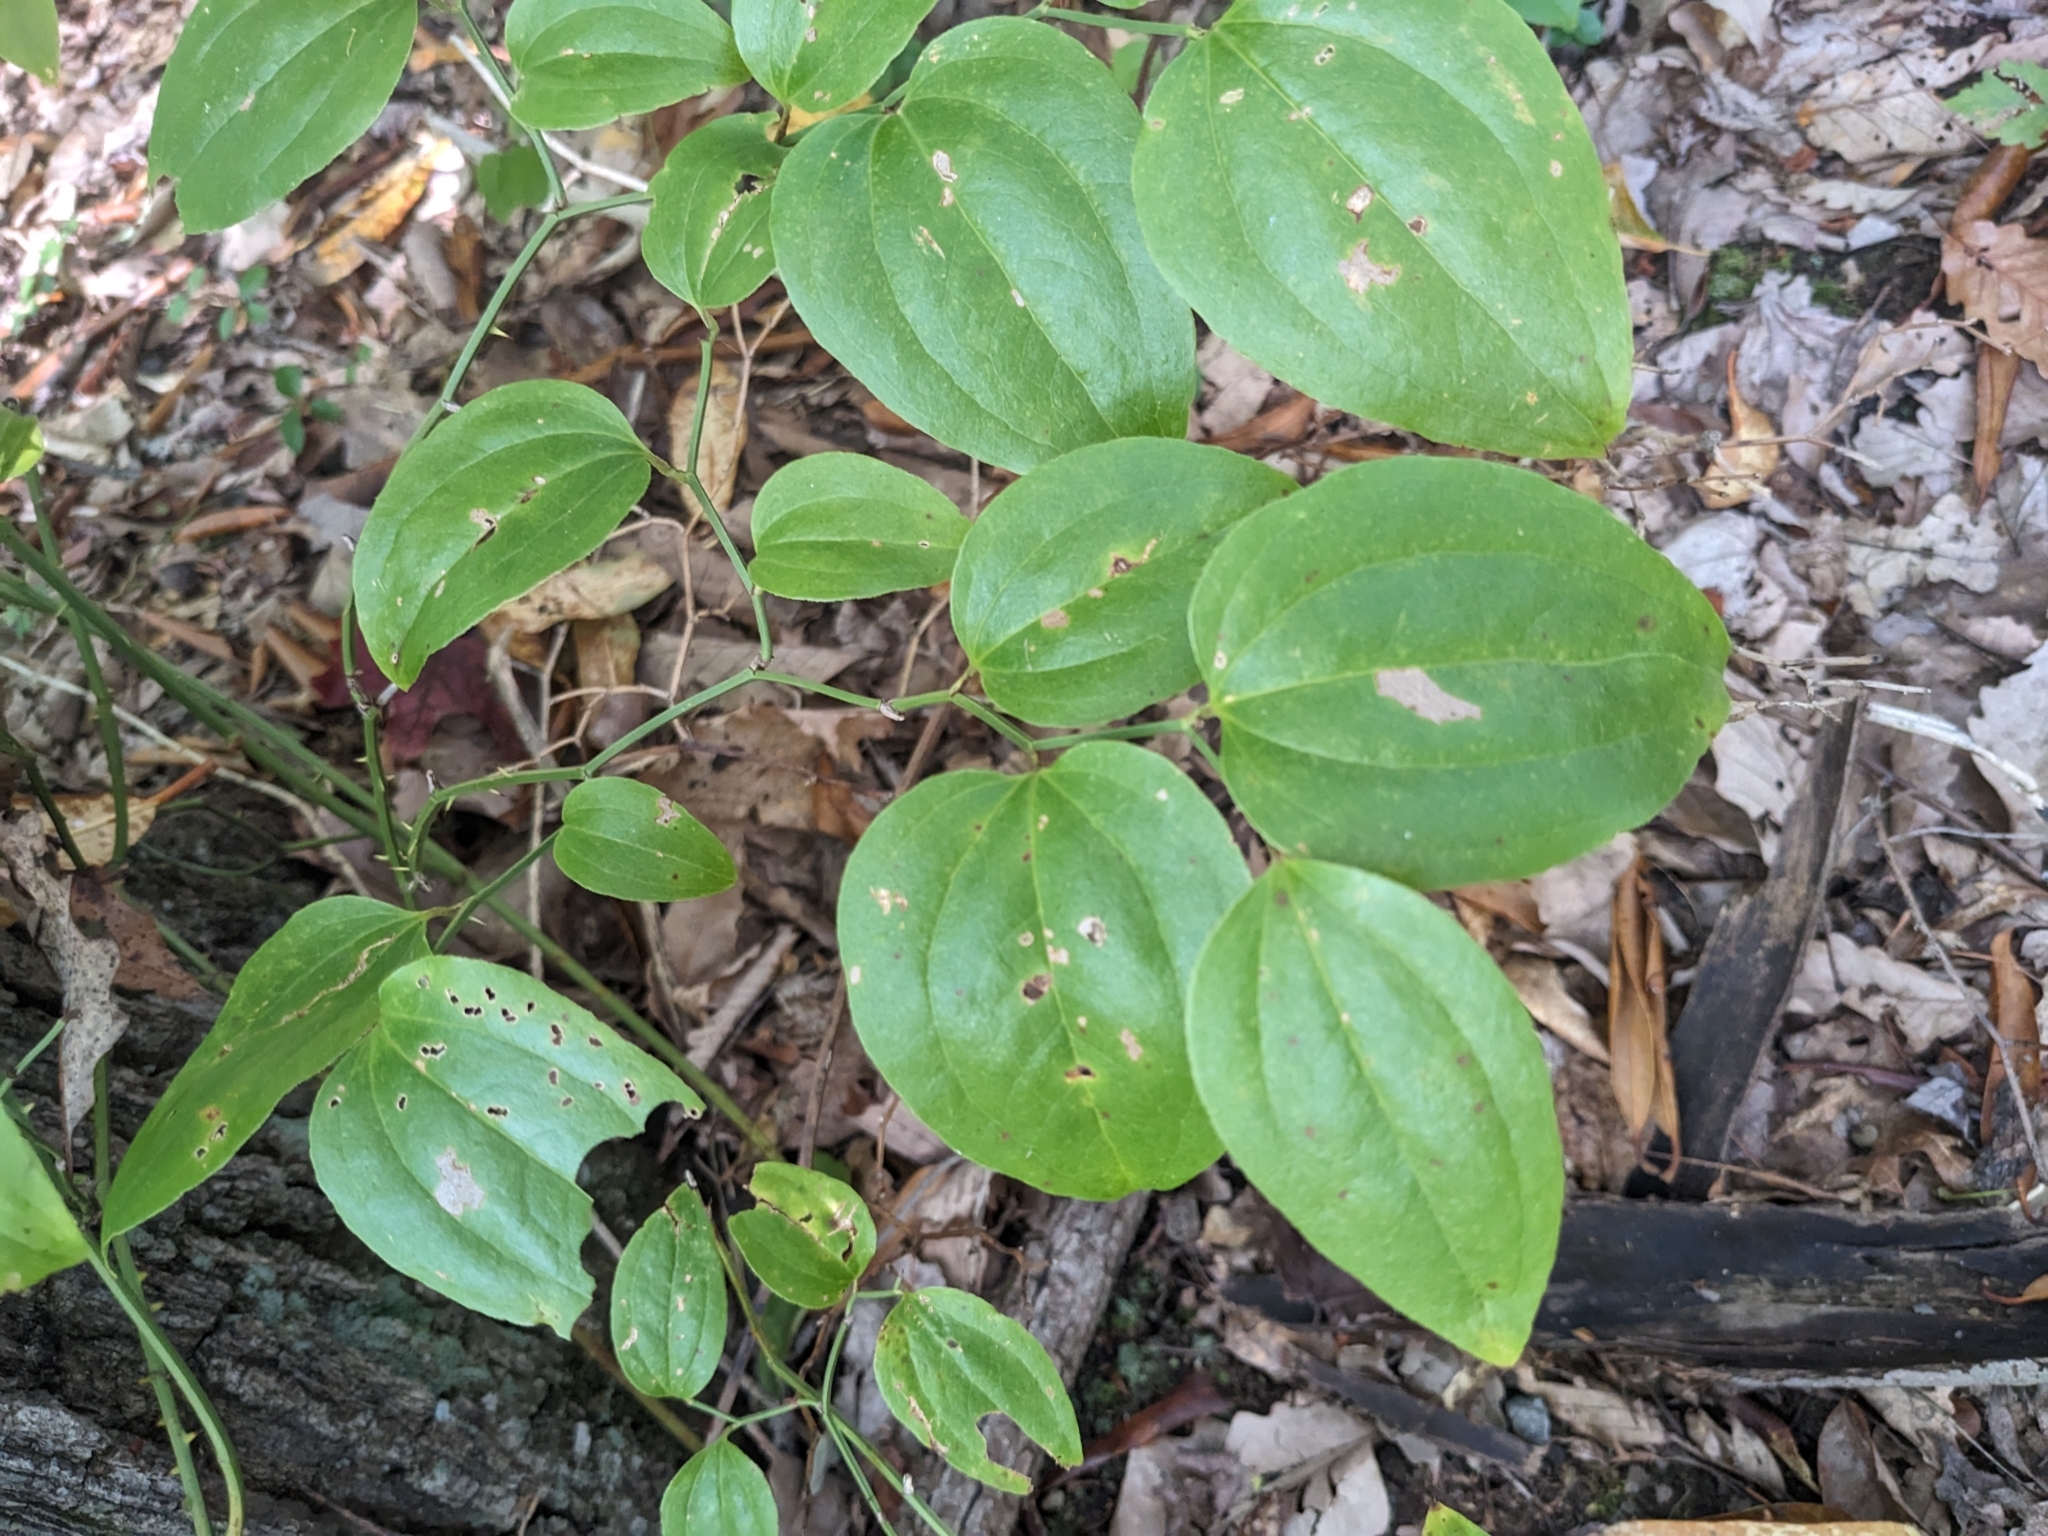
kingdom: Plantae
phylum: Tracheophyta
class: Liliopsida
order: Liliales
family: Smilacaceae
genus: Smilax
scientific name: Smilax rotundifolia
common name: Bullbriar
